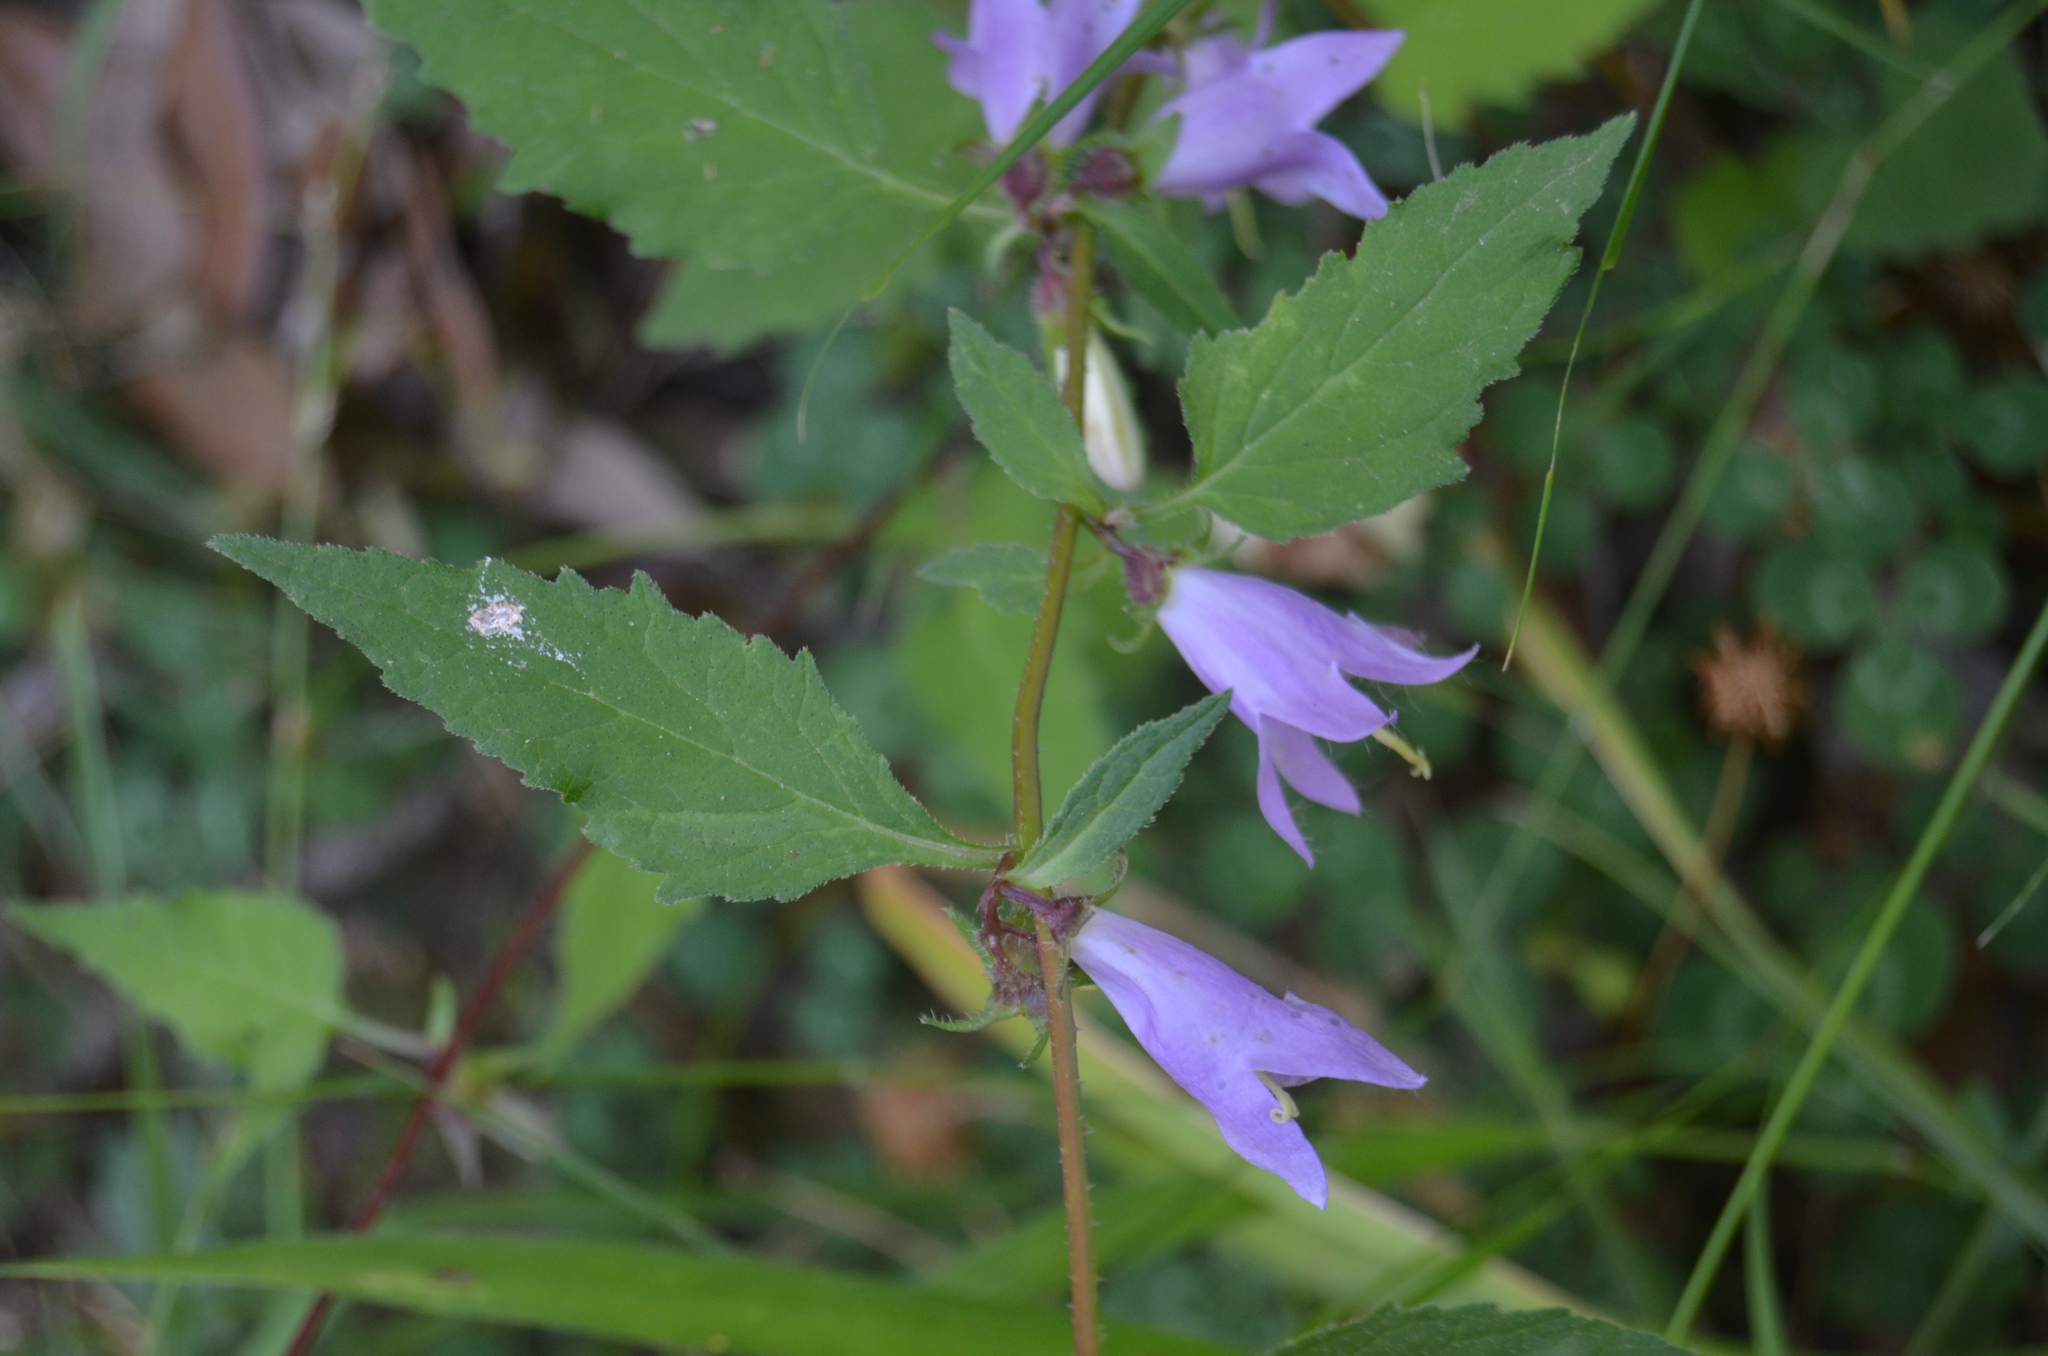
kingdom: Plantae
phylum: Tracheophyta
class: Magnoliopsida
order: Asterales
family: Campanulaceae
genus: Campanula
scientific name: Campanula trachelium
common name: Nettle-leaved bellflower
